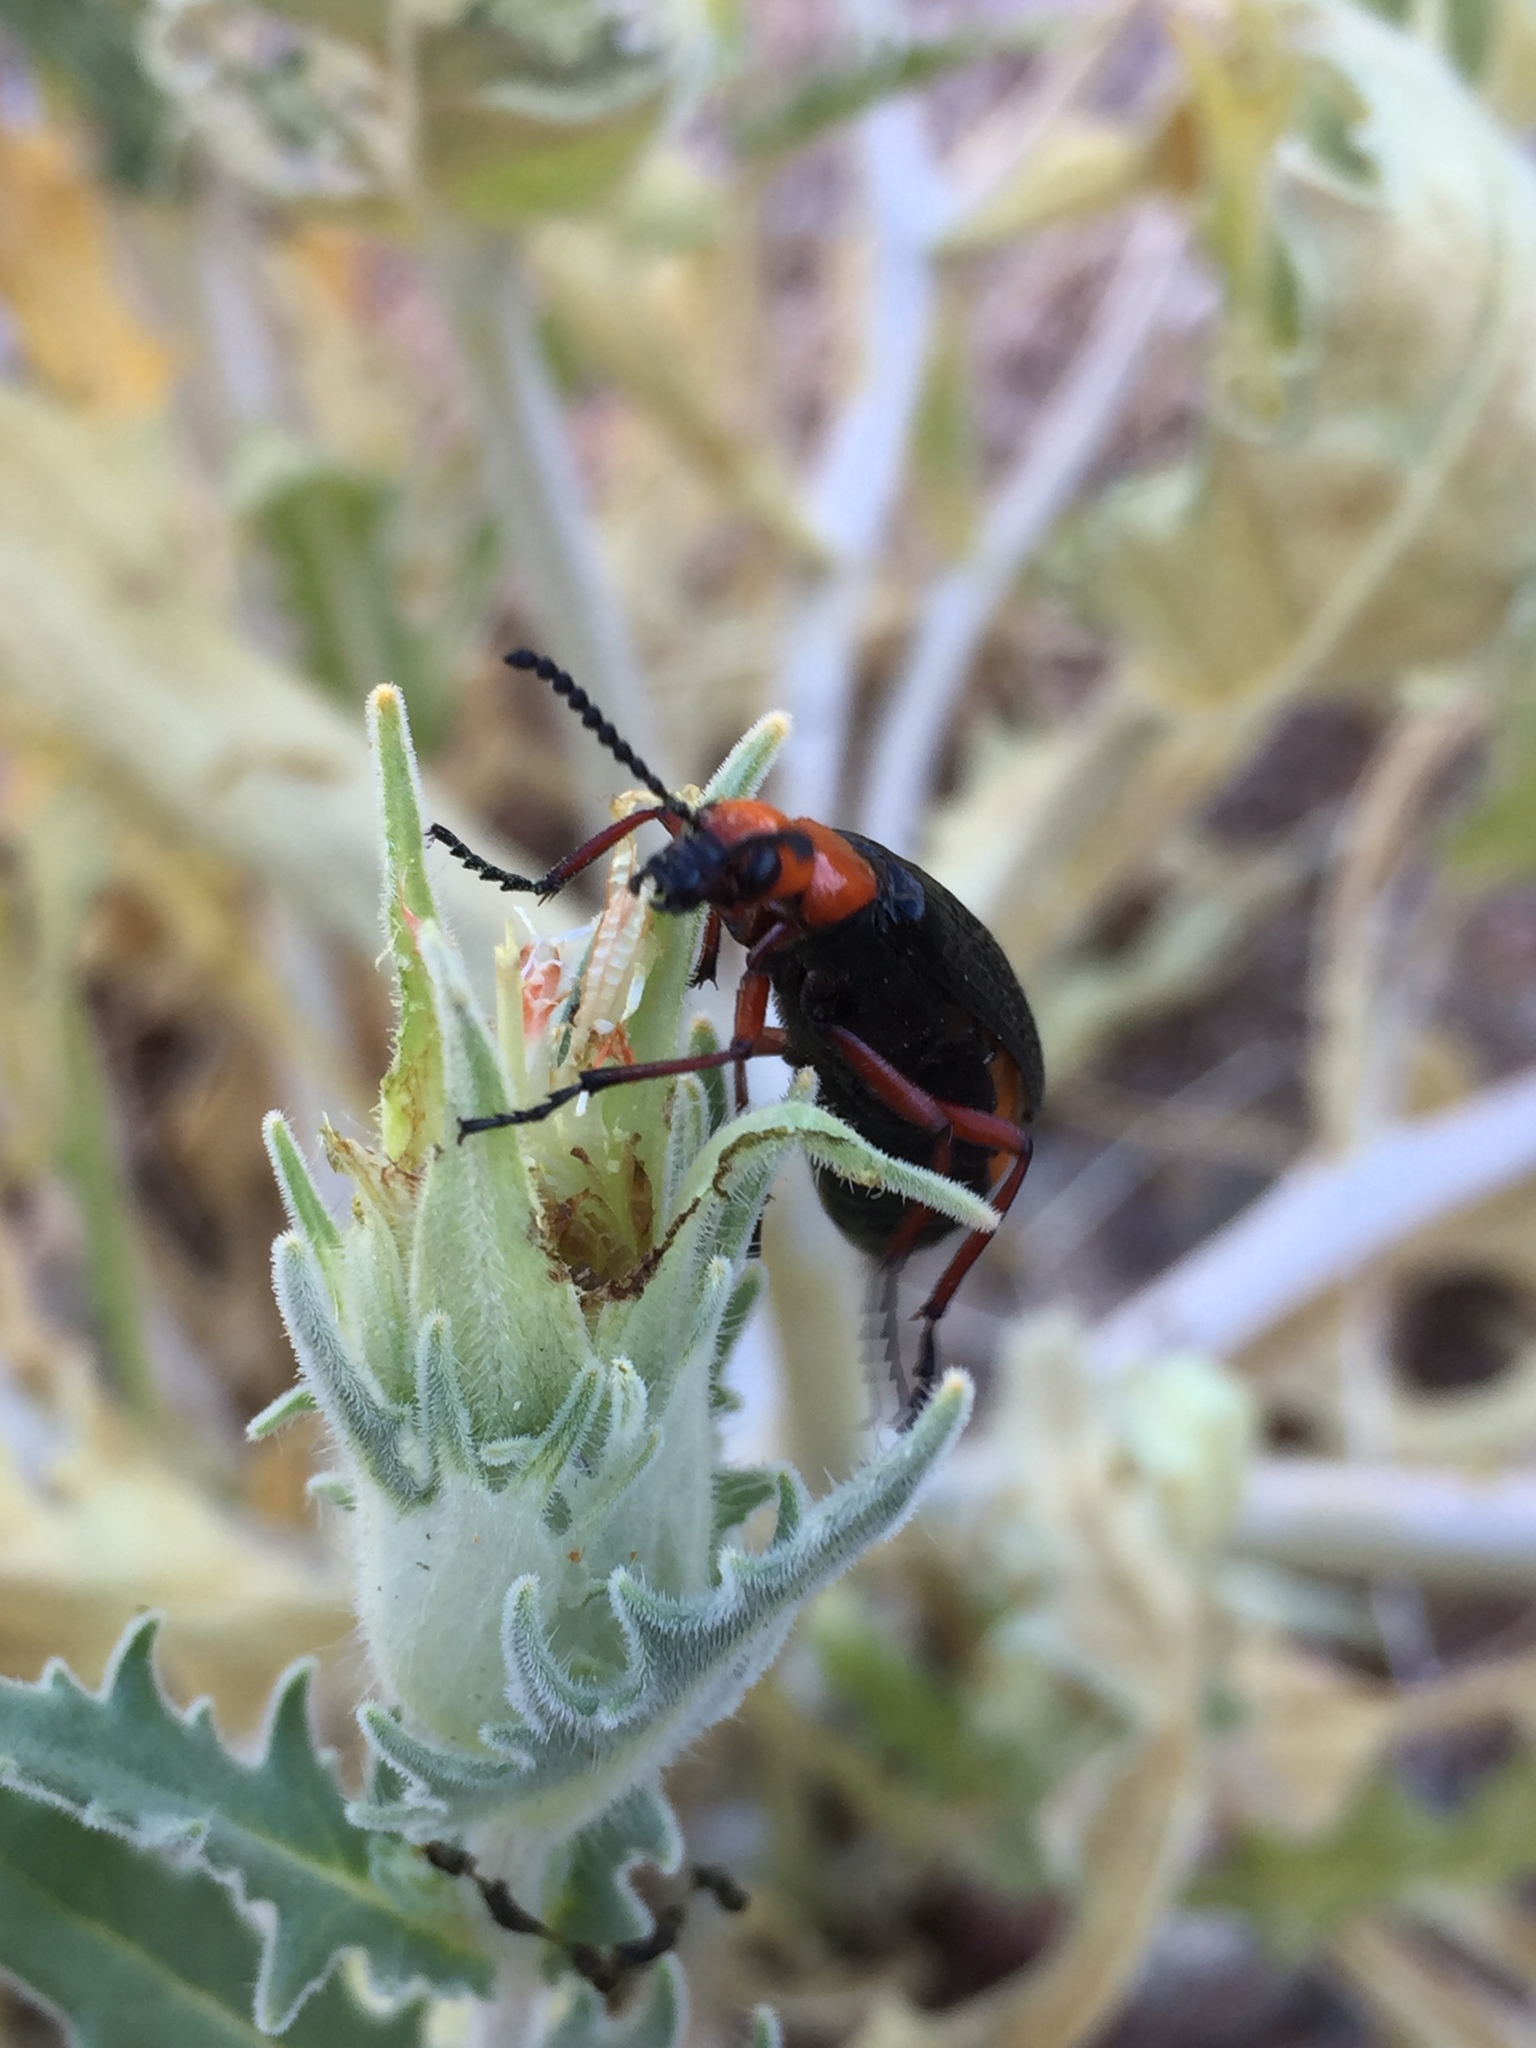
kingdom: Animalia
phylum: Arthropoda
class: Insecta
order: Coleoptera
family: Meloidae
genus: Lytta
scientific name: Lytta magister
